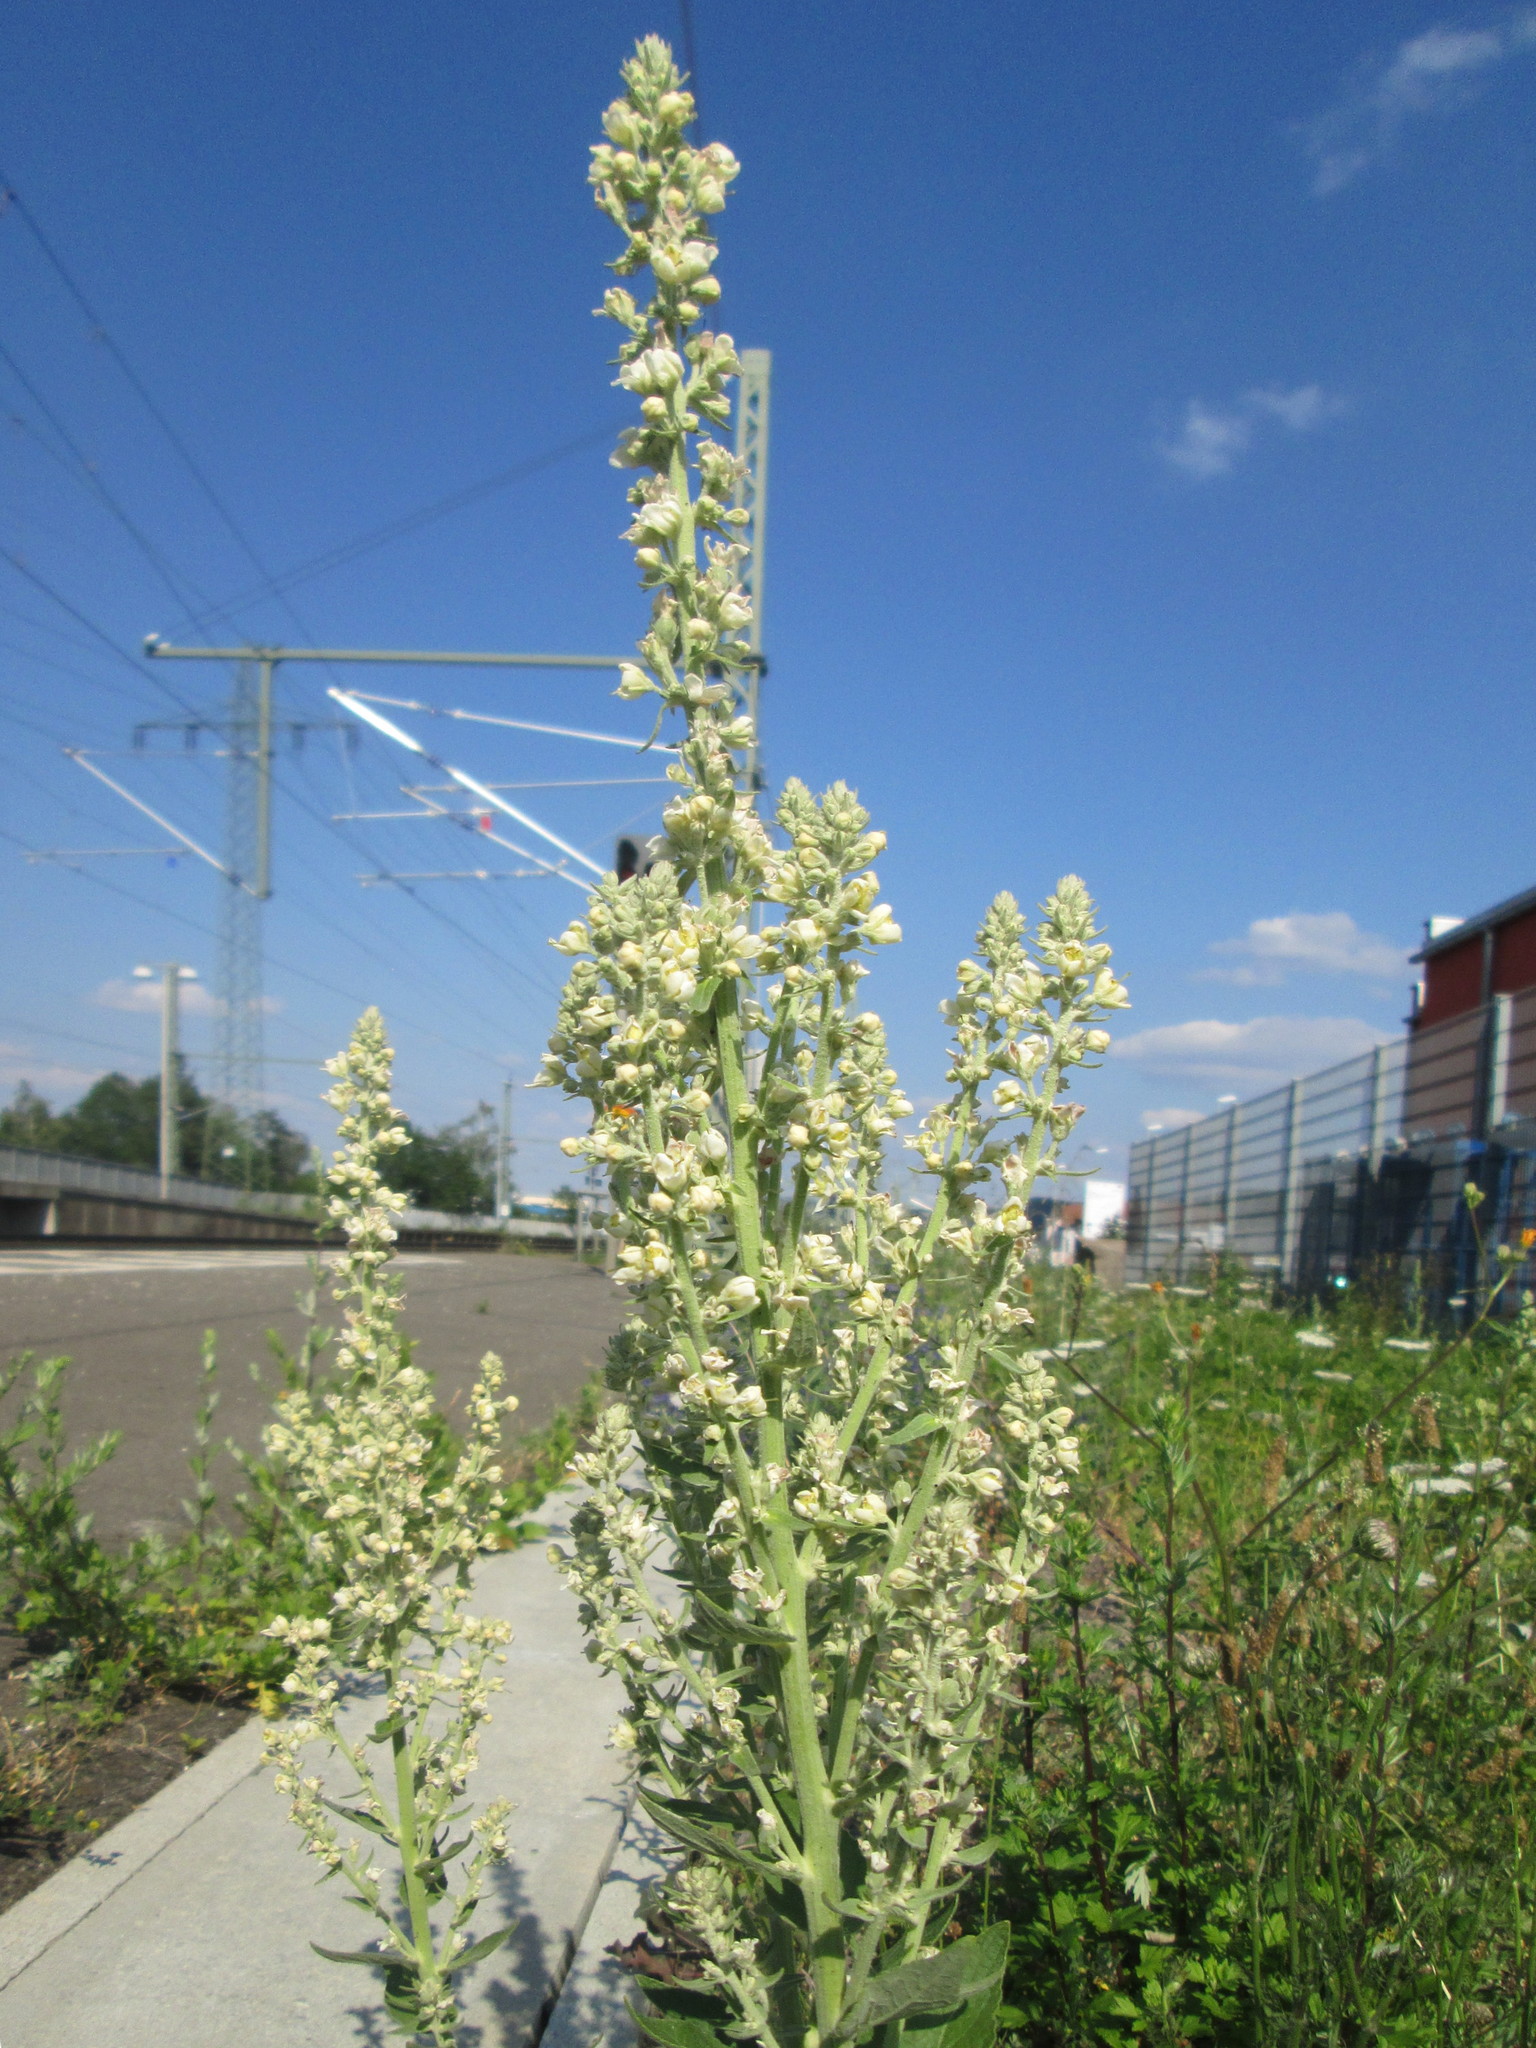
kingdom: Plantae
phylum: Tracheophyta
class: Magnoliopsida
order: Lamiales
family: Scrophulariaceae
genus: Verbascum
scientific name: Verbascum lychnitis
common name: White mullein
